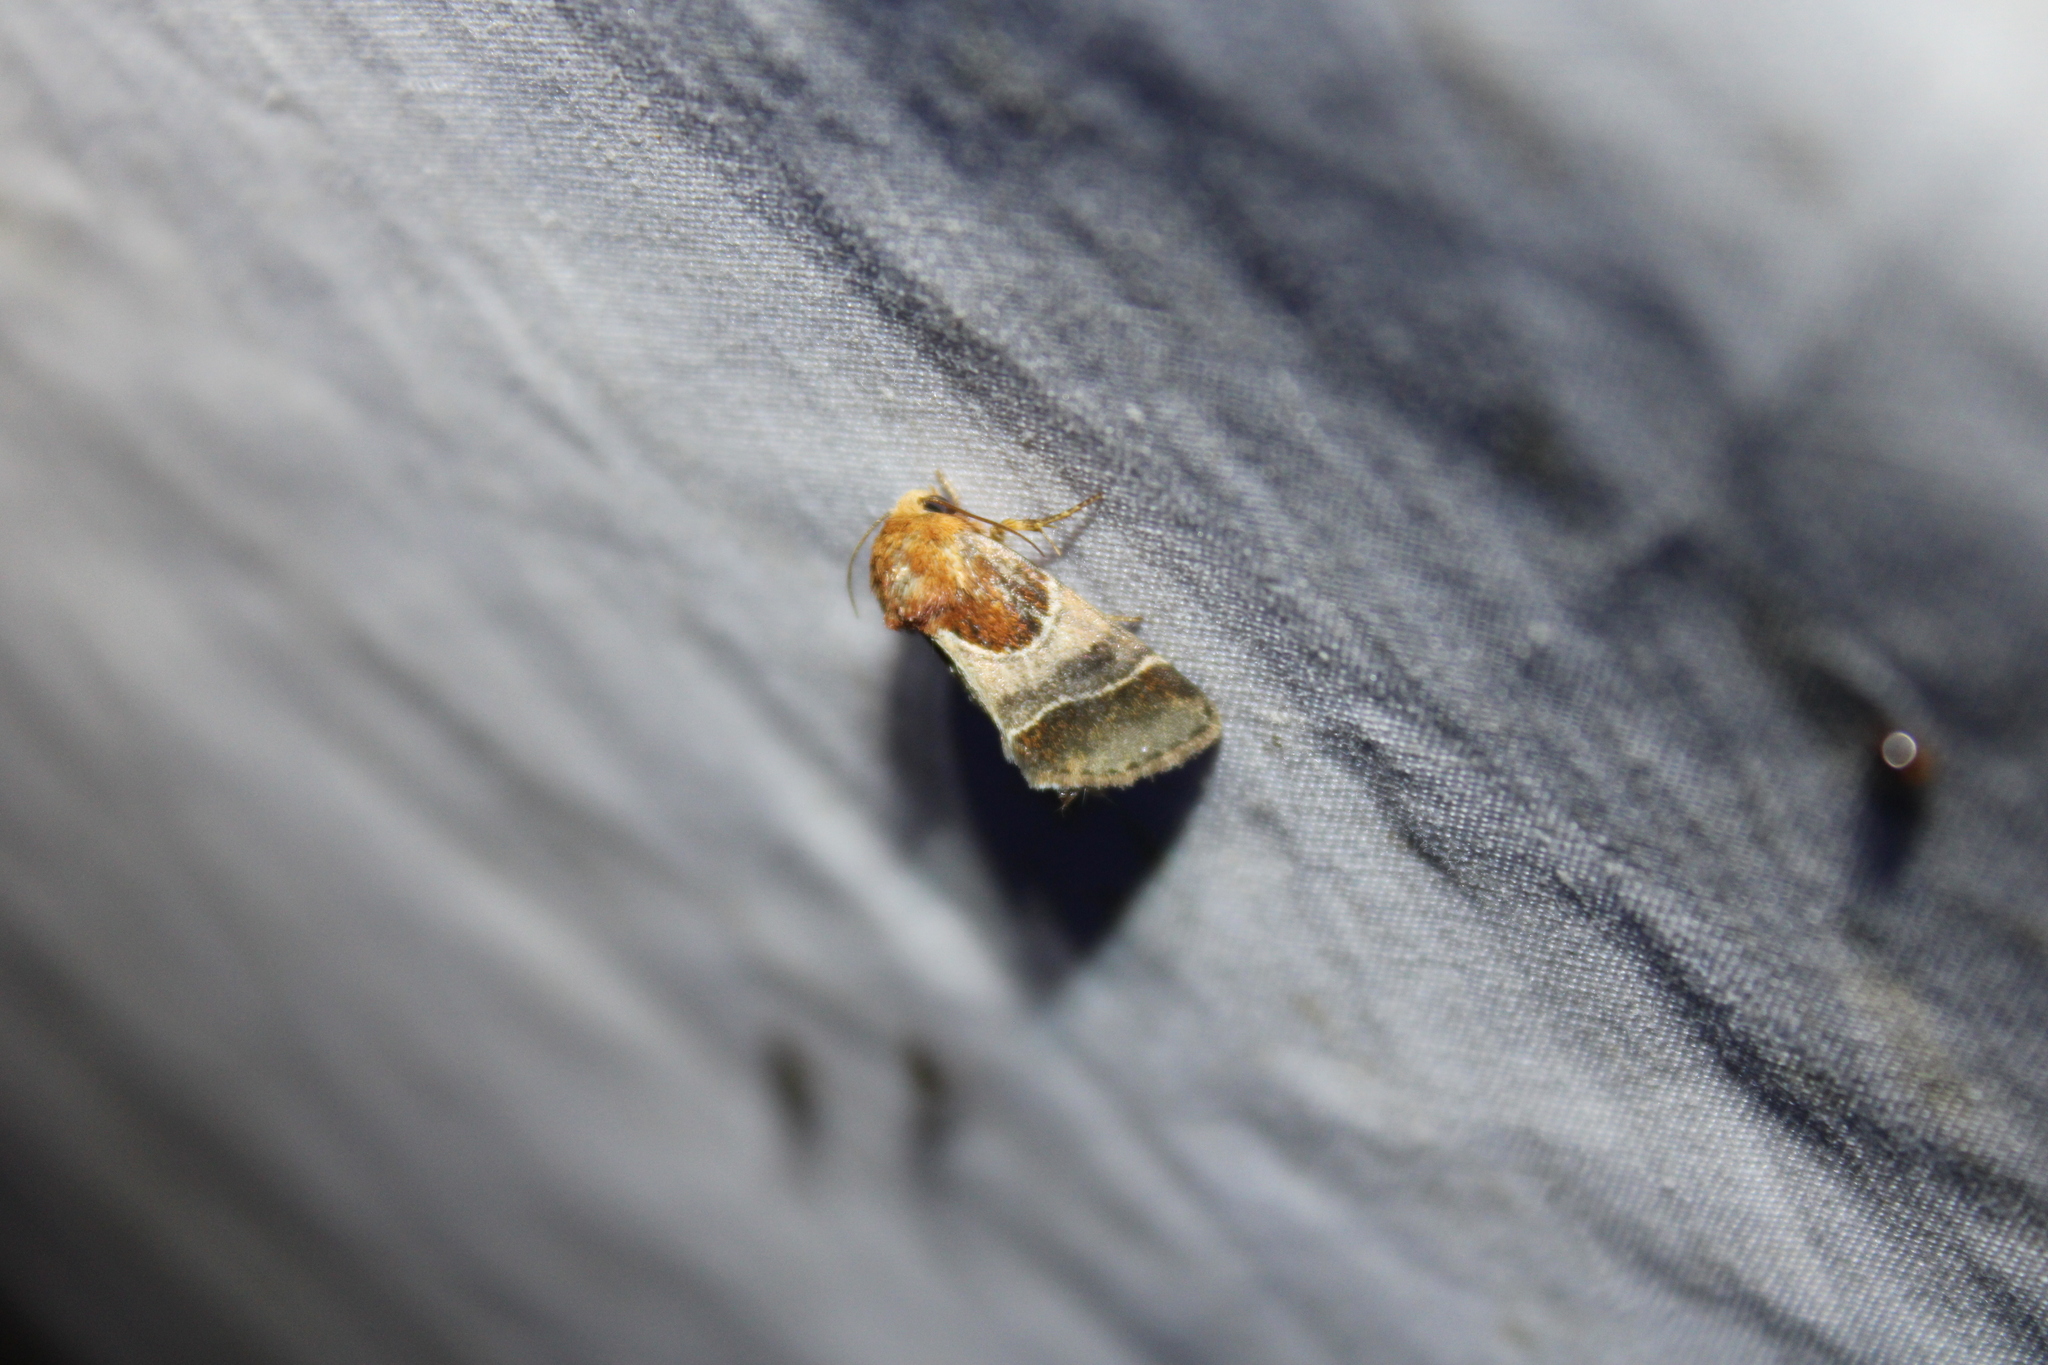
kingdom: Animalia
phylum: Arthropoda
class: Insecta
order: Lepidoptera
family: Noctuidae
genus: Schinia
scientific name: Schinia arcigera
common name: Arcigera flower moth
